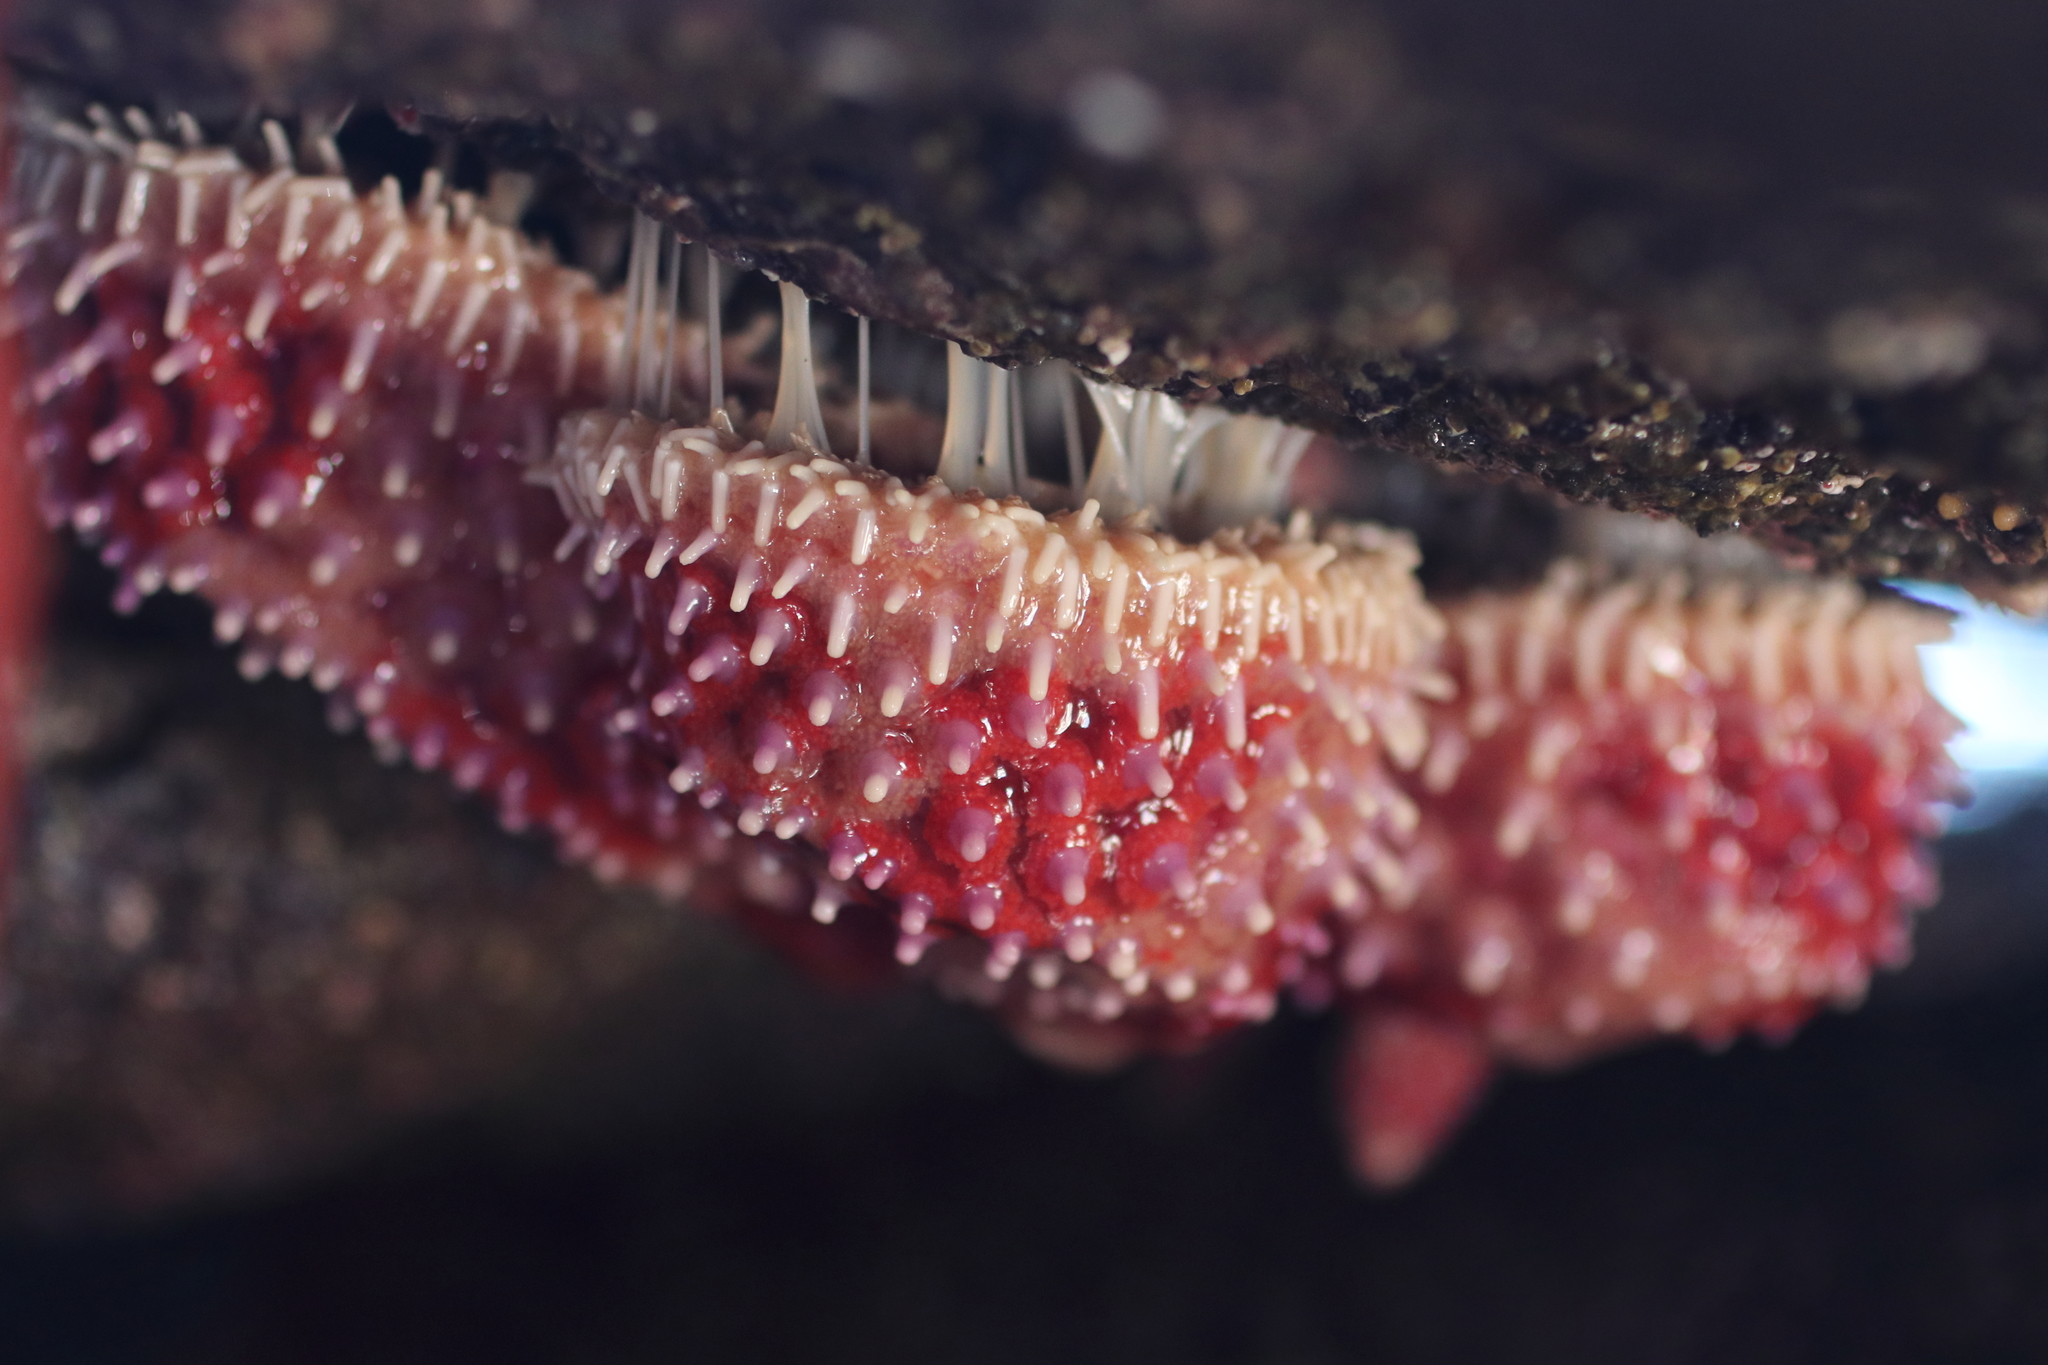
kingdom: Animalia
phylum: Echinodermata
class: Asteroidea
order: Forcipulatida
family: Asteriidae
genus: Orthasterias
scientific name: Orthasterias koehleri
